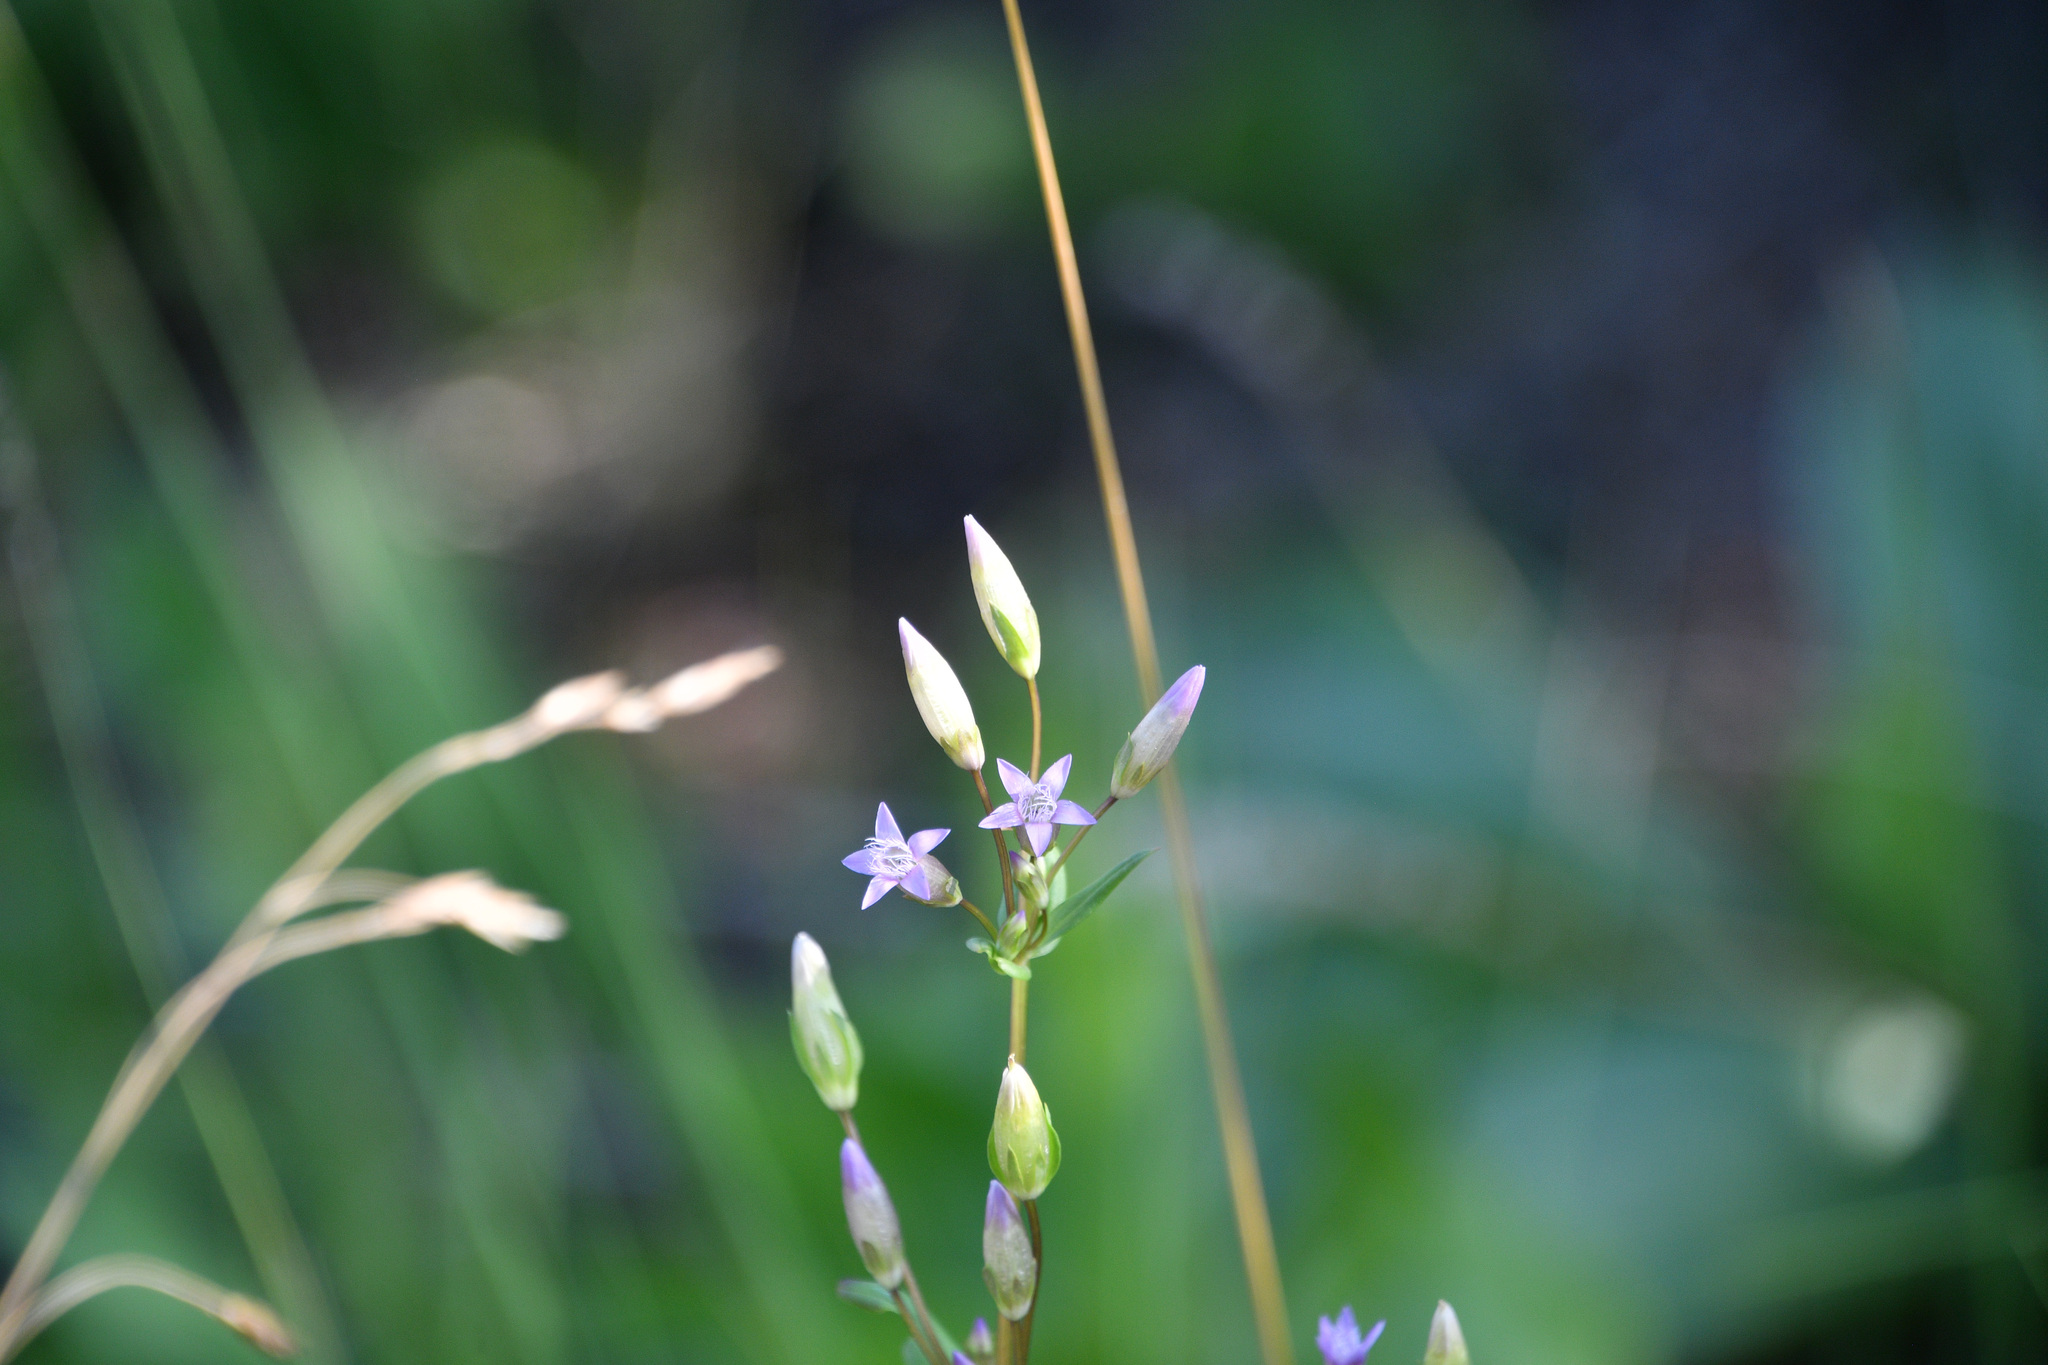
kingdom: Plantae
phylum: Tracheophyta
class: Magnoliopsida
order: Gentianales
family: Gentianaceae
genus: Gentianella
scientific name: Gentianella amarella
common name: Autumn gentian
